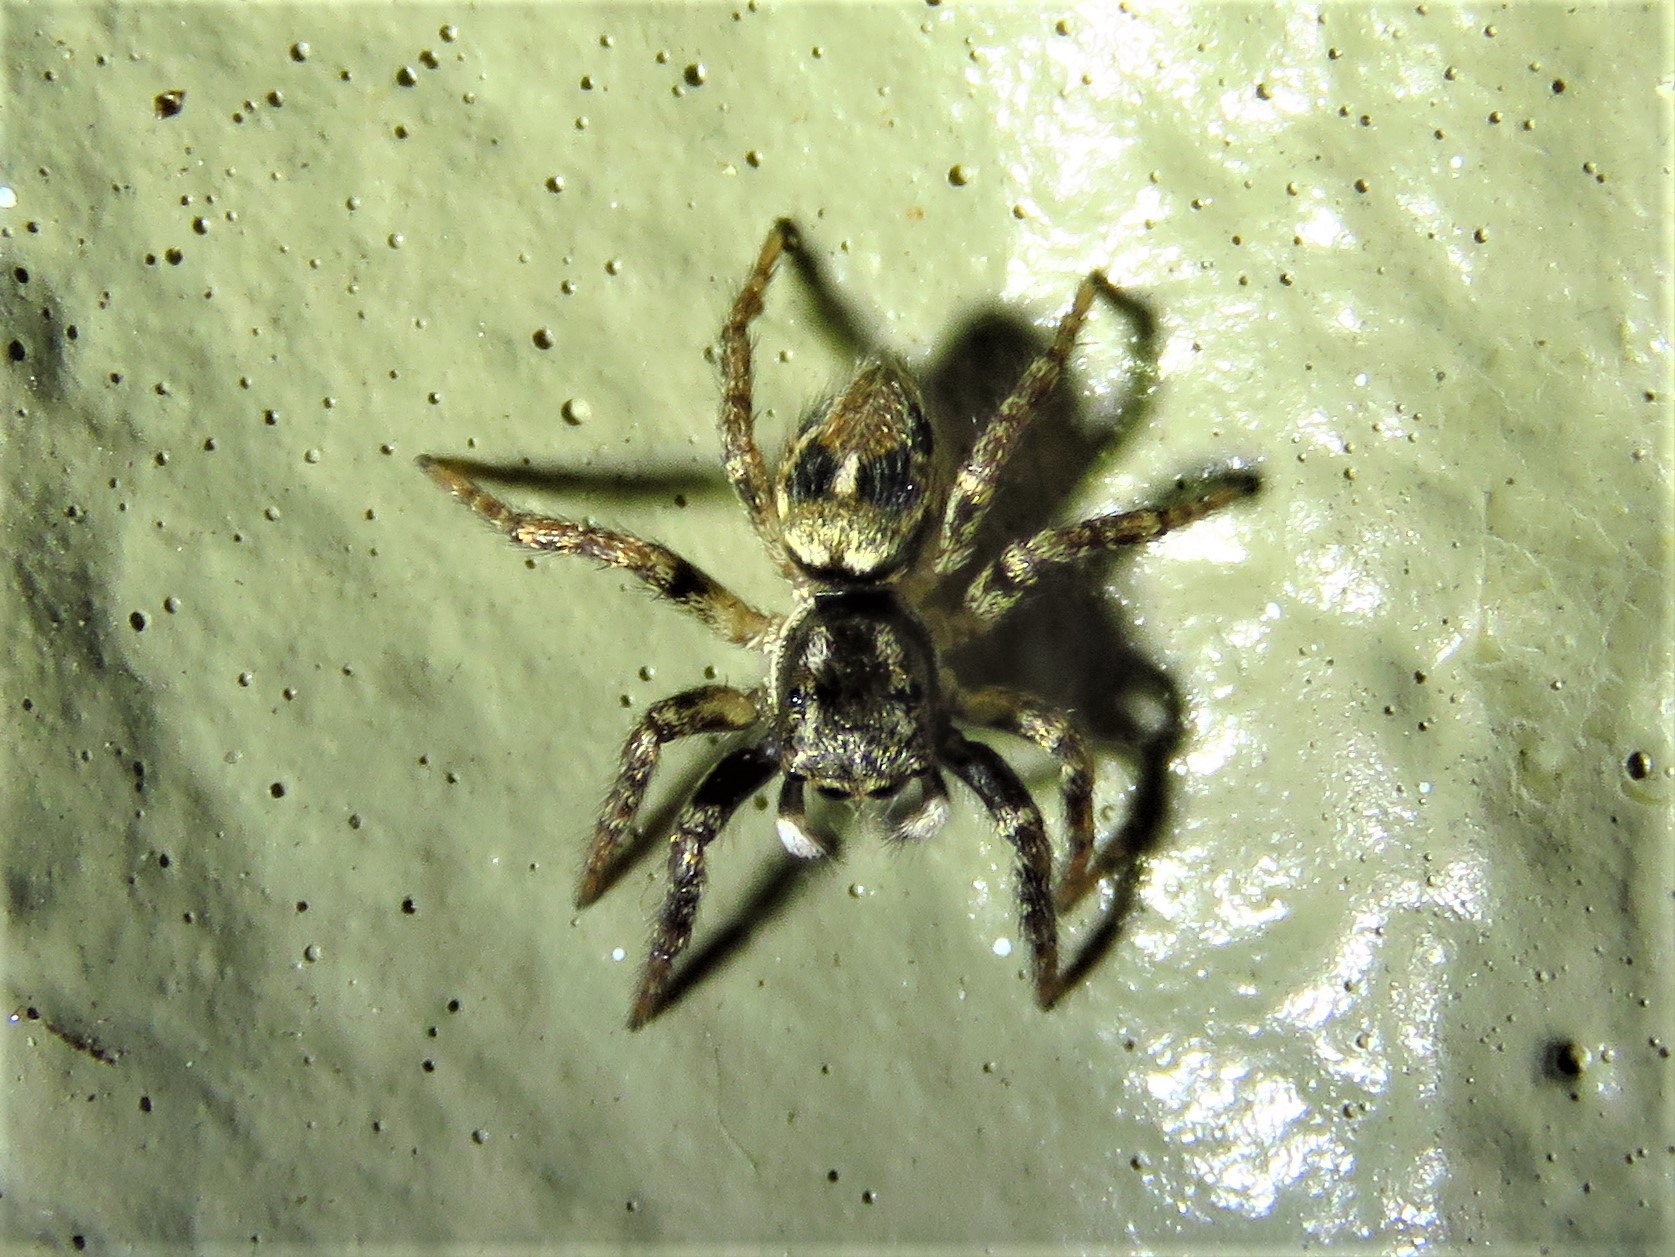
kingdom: Animalia
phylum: Arthropoda
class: Arachnida
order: Araneae
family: Salticidae
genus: Anasaitis
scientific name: Anasaitis canosa
